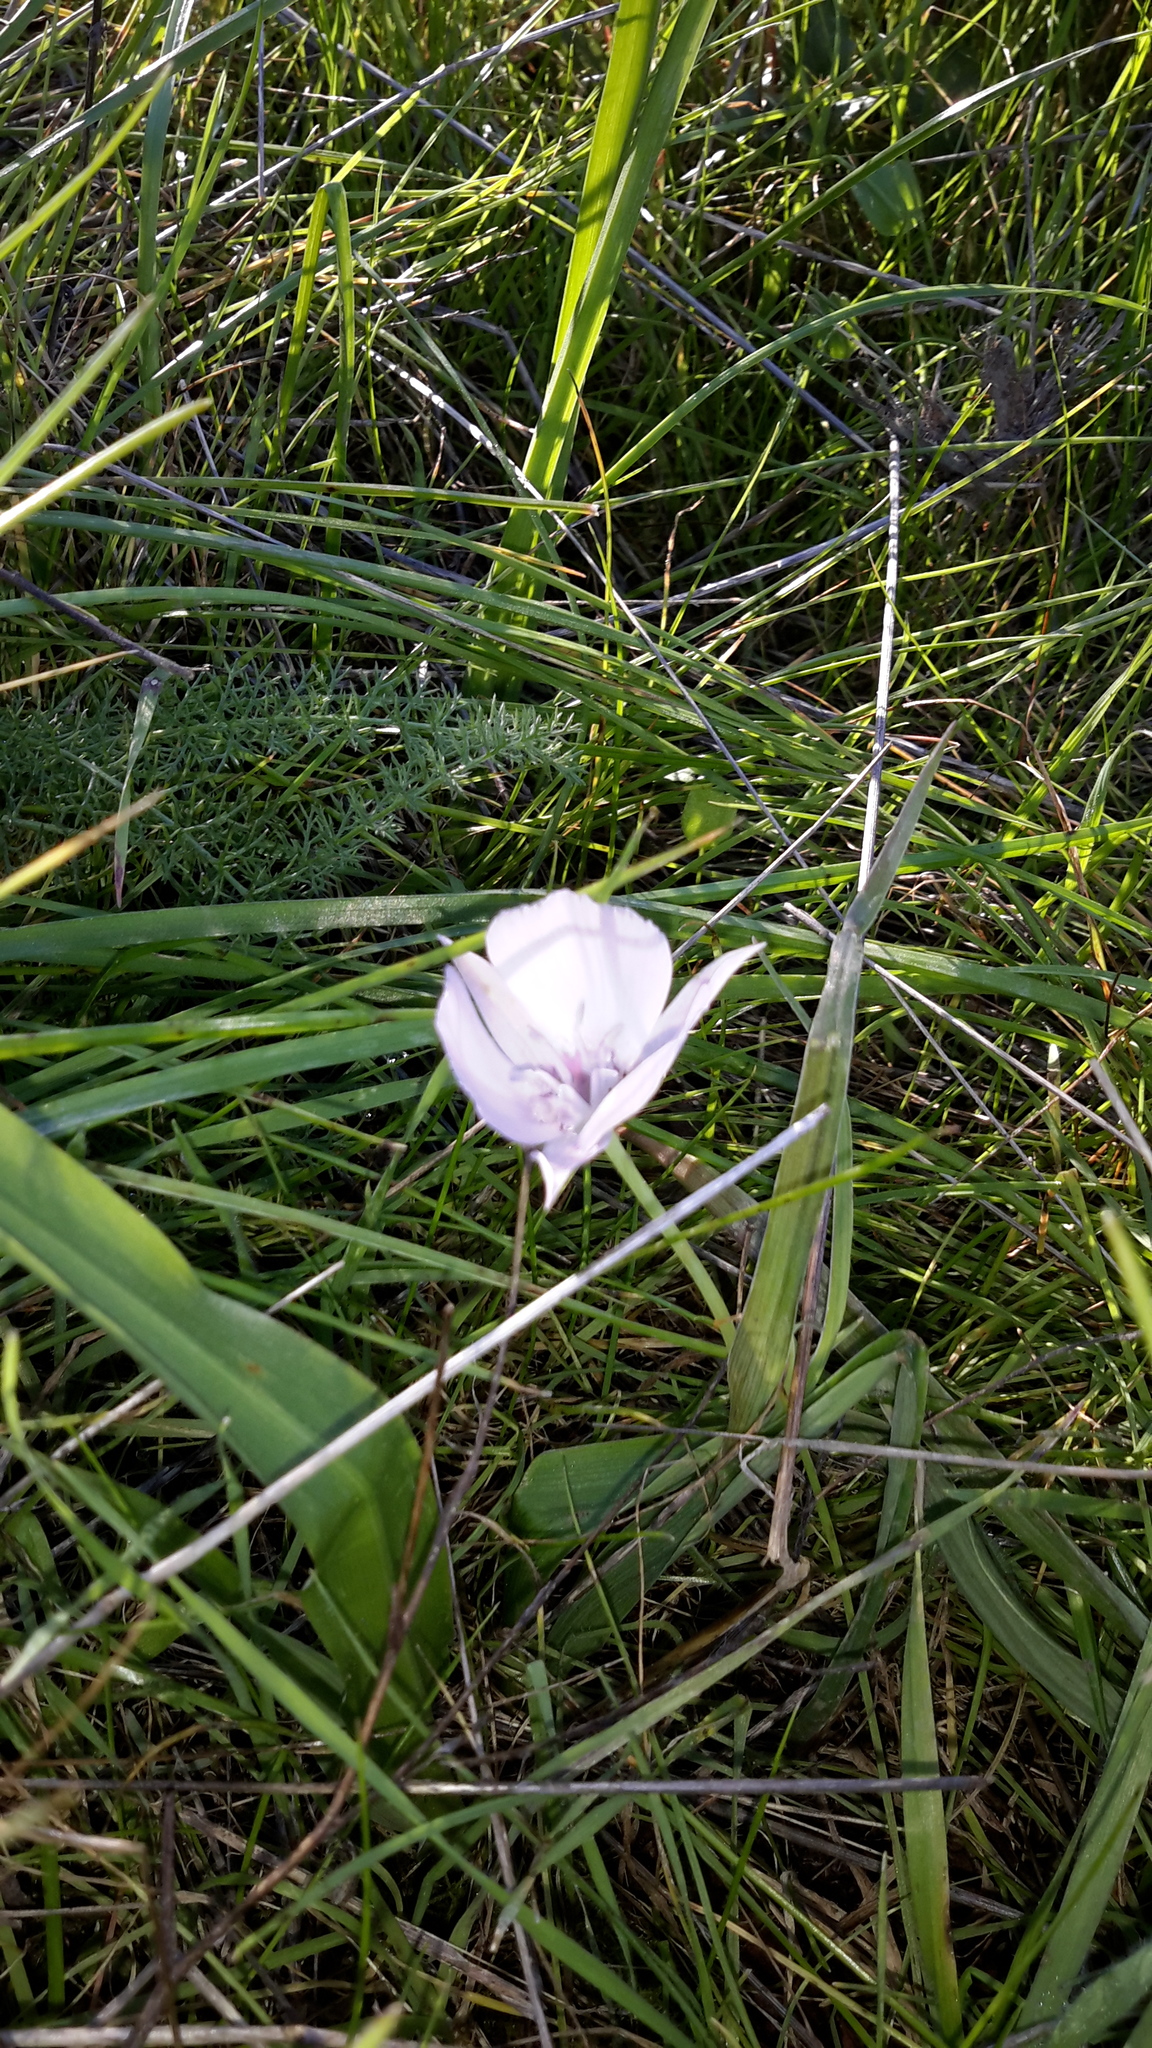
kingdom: Plantae
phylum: Tracheophyta
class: Liliopsida
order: Liliales
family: Liliaceae
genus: Calochortus
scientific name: Calochortus umbellatus
